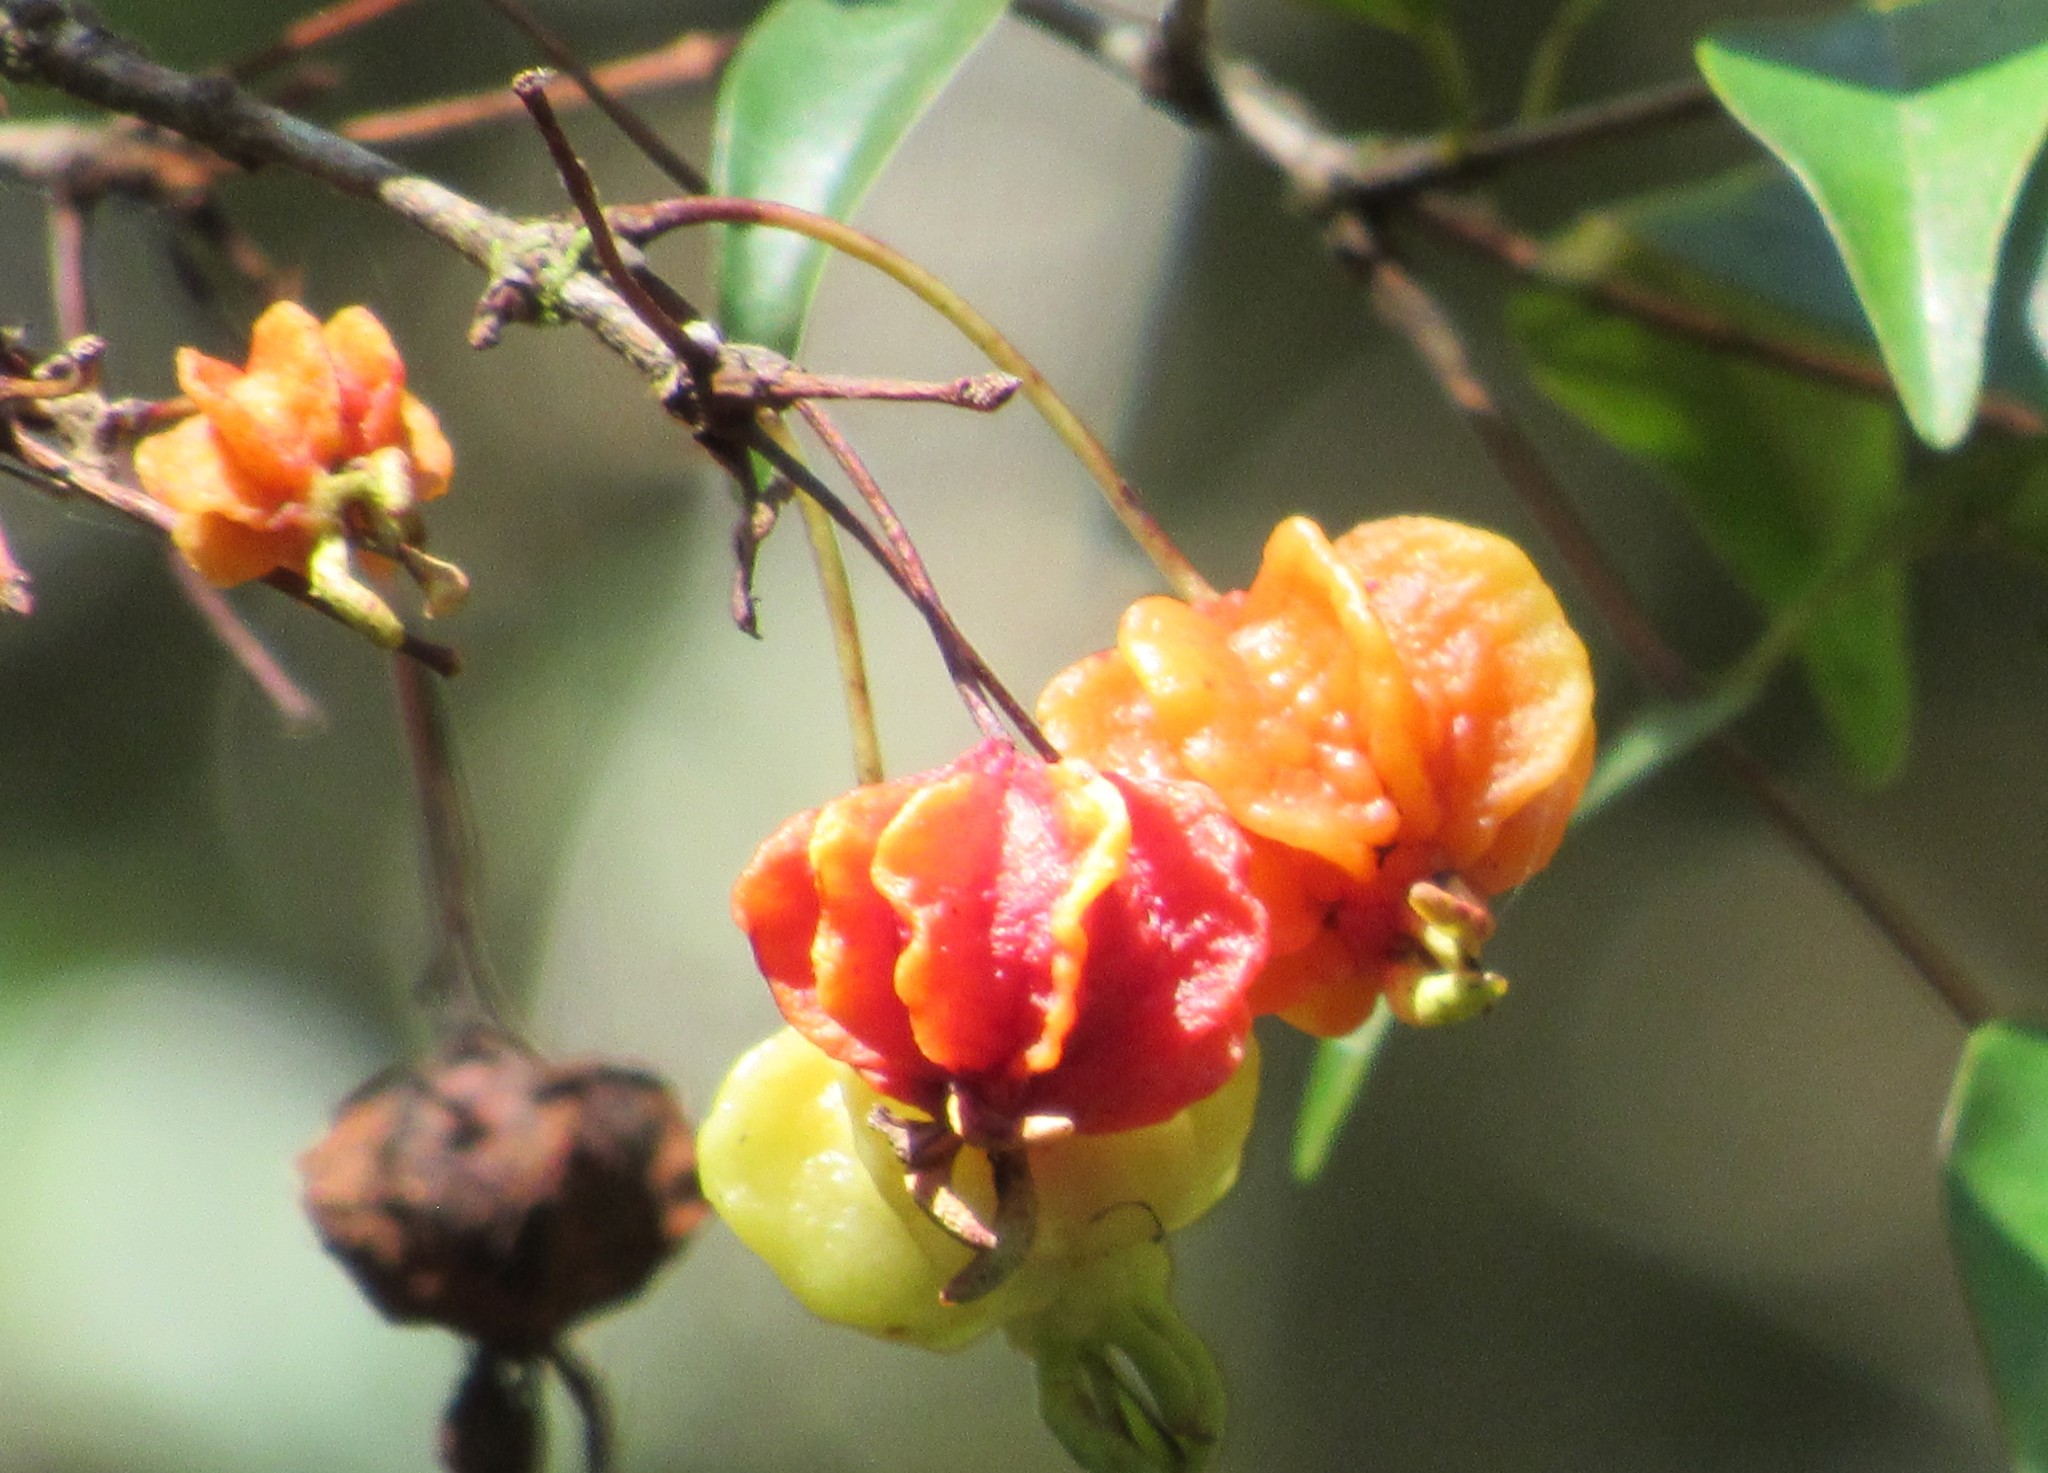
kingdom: Plantae
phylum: Tracheophyta
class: Magnoliopsida
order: Myrtales
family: Myrtaceae
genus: Eugenia
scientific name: Eugenia uniflora
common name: Surinam cherry
